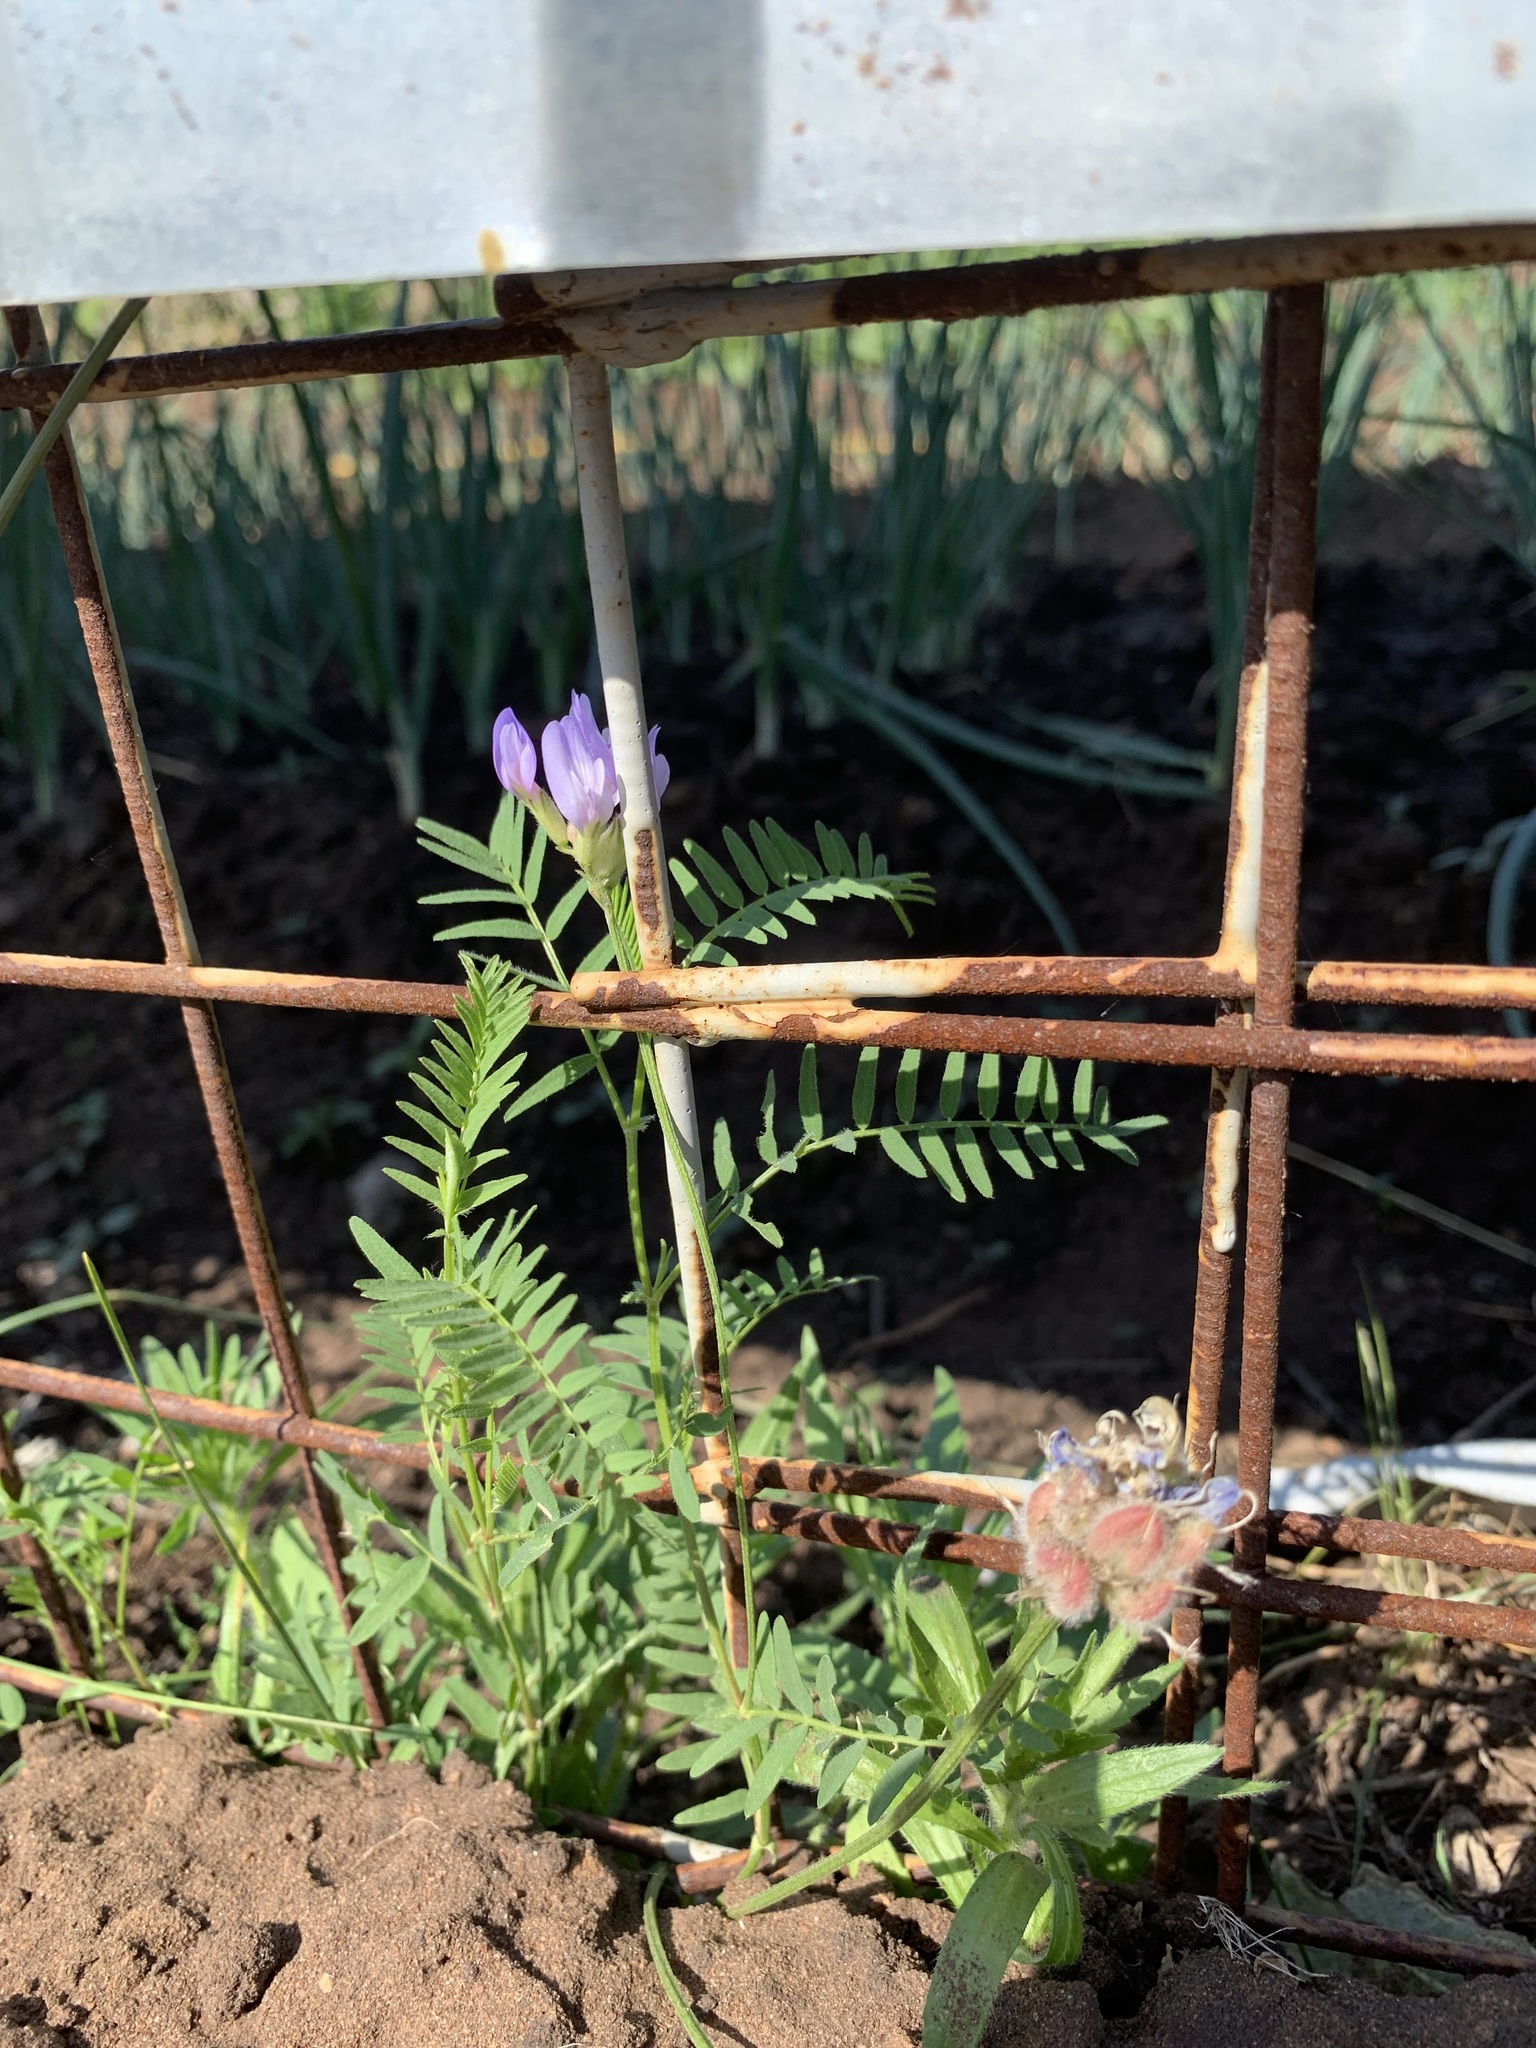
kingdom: Plantae
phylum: Tracheophyta
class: Magnoliopsida
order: Fabales
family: Fabaceae
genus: Astragalus
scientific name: Astragalus danicus
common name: Purple milk-vetch
